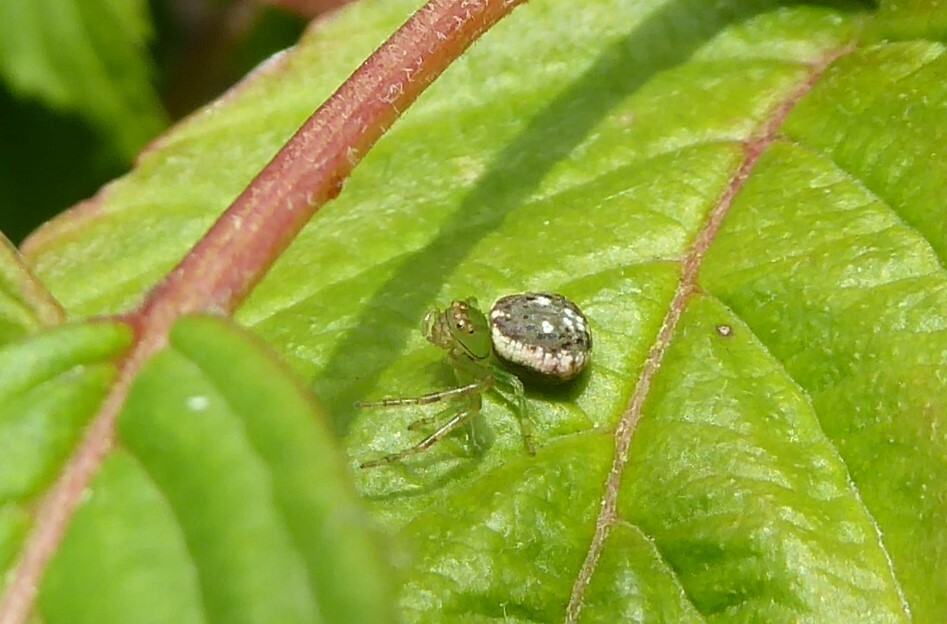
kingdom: Animalia
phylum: Arthropoda
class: Arachnida
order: Araneae
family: Thomisidae
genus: Diaea
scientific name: Diaea ambara
